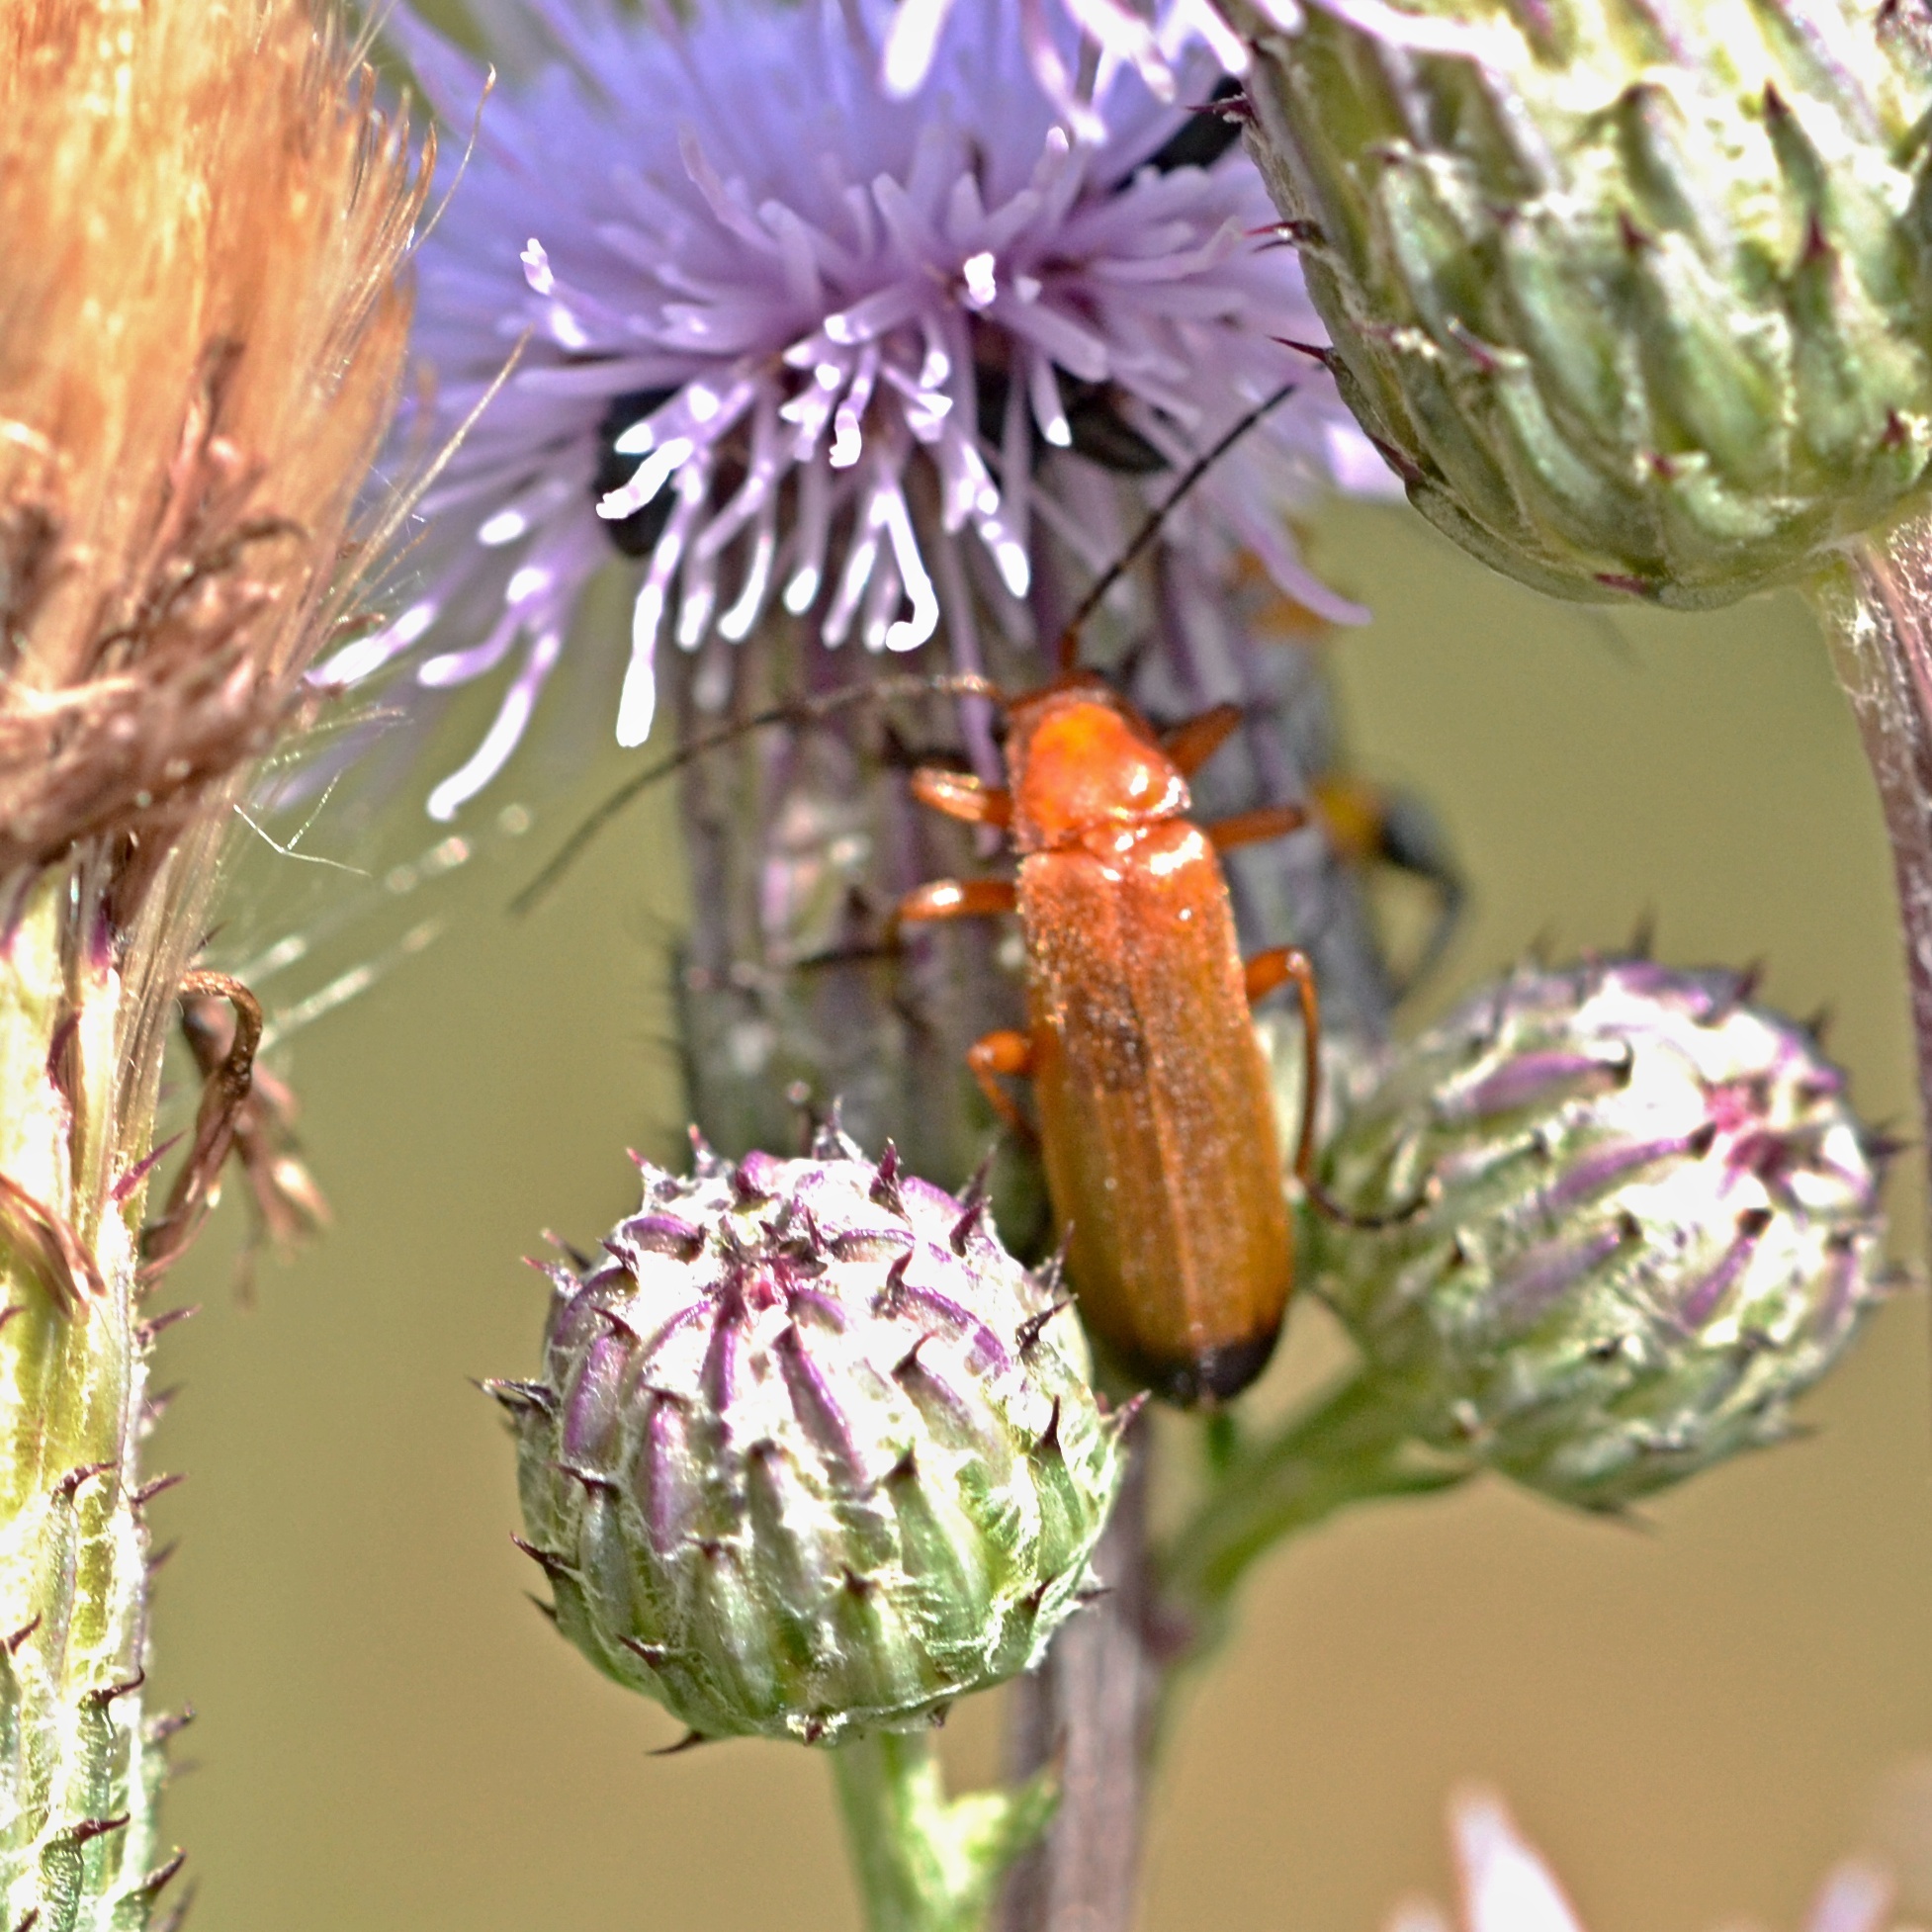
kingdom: Animalia
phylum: Arthropoda
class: Insecta
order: Coleoptera
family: Cantharidae
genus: Rhagonycha
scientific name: Rhagonycha fulva
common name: Common red soldier beetle
